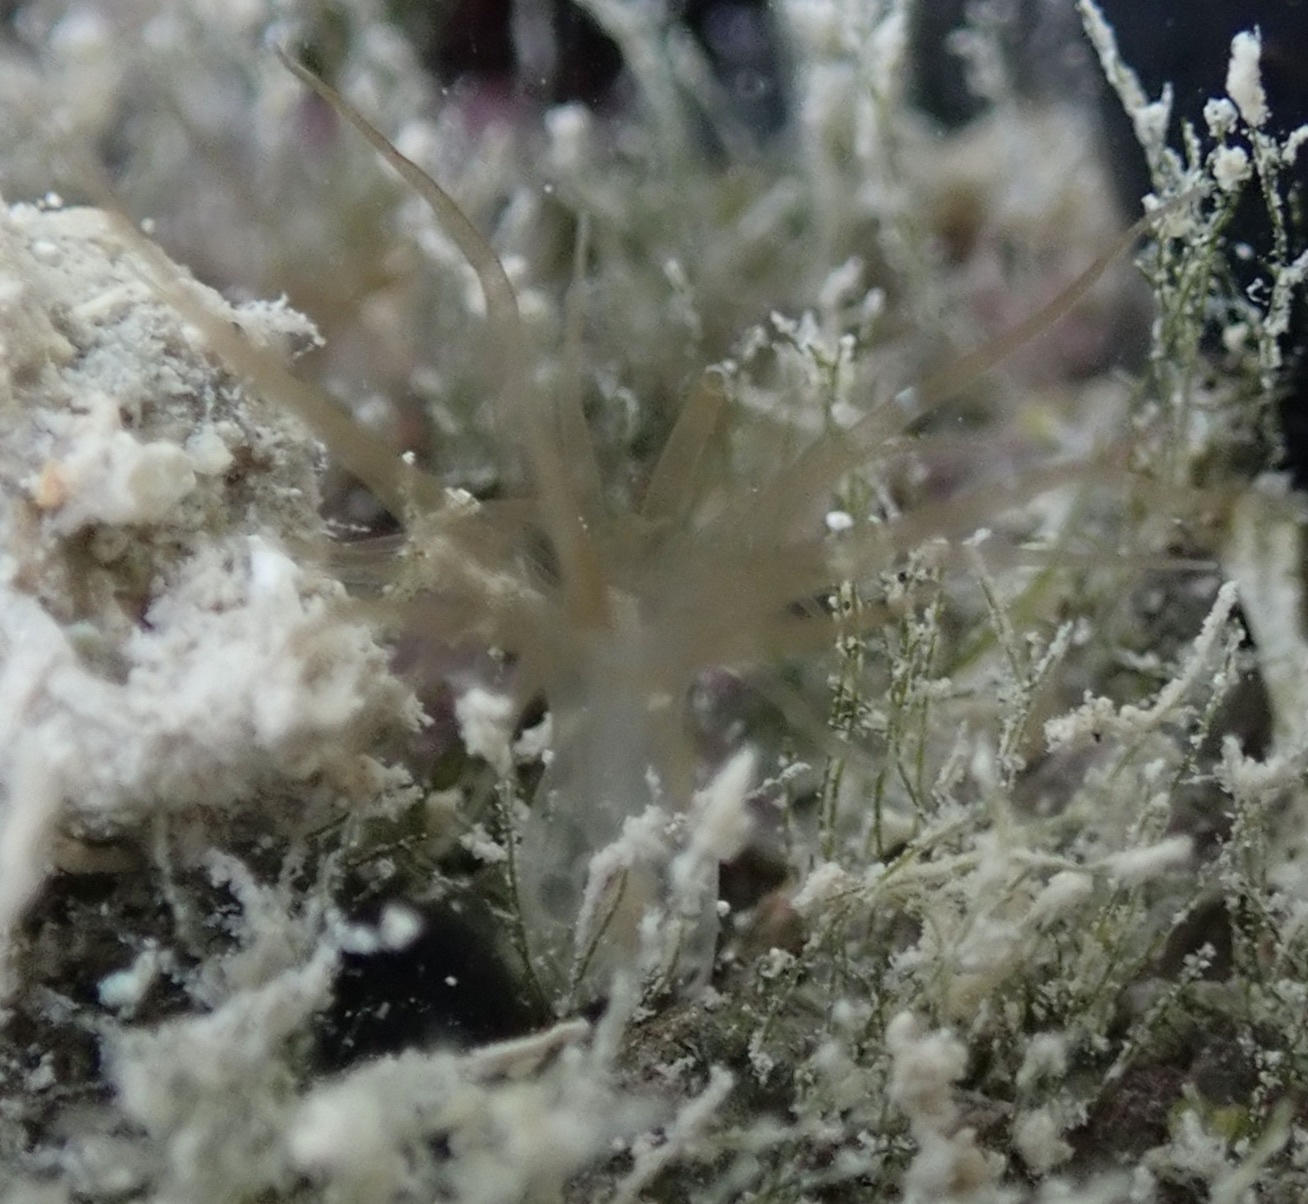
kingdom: Animalia
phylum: Cnidaria
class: Anthozoa
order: Actiniaria
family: Aiptasiidae
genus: Exaiptasia
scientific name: Exaiptasia diaphana
